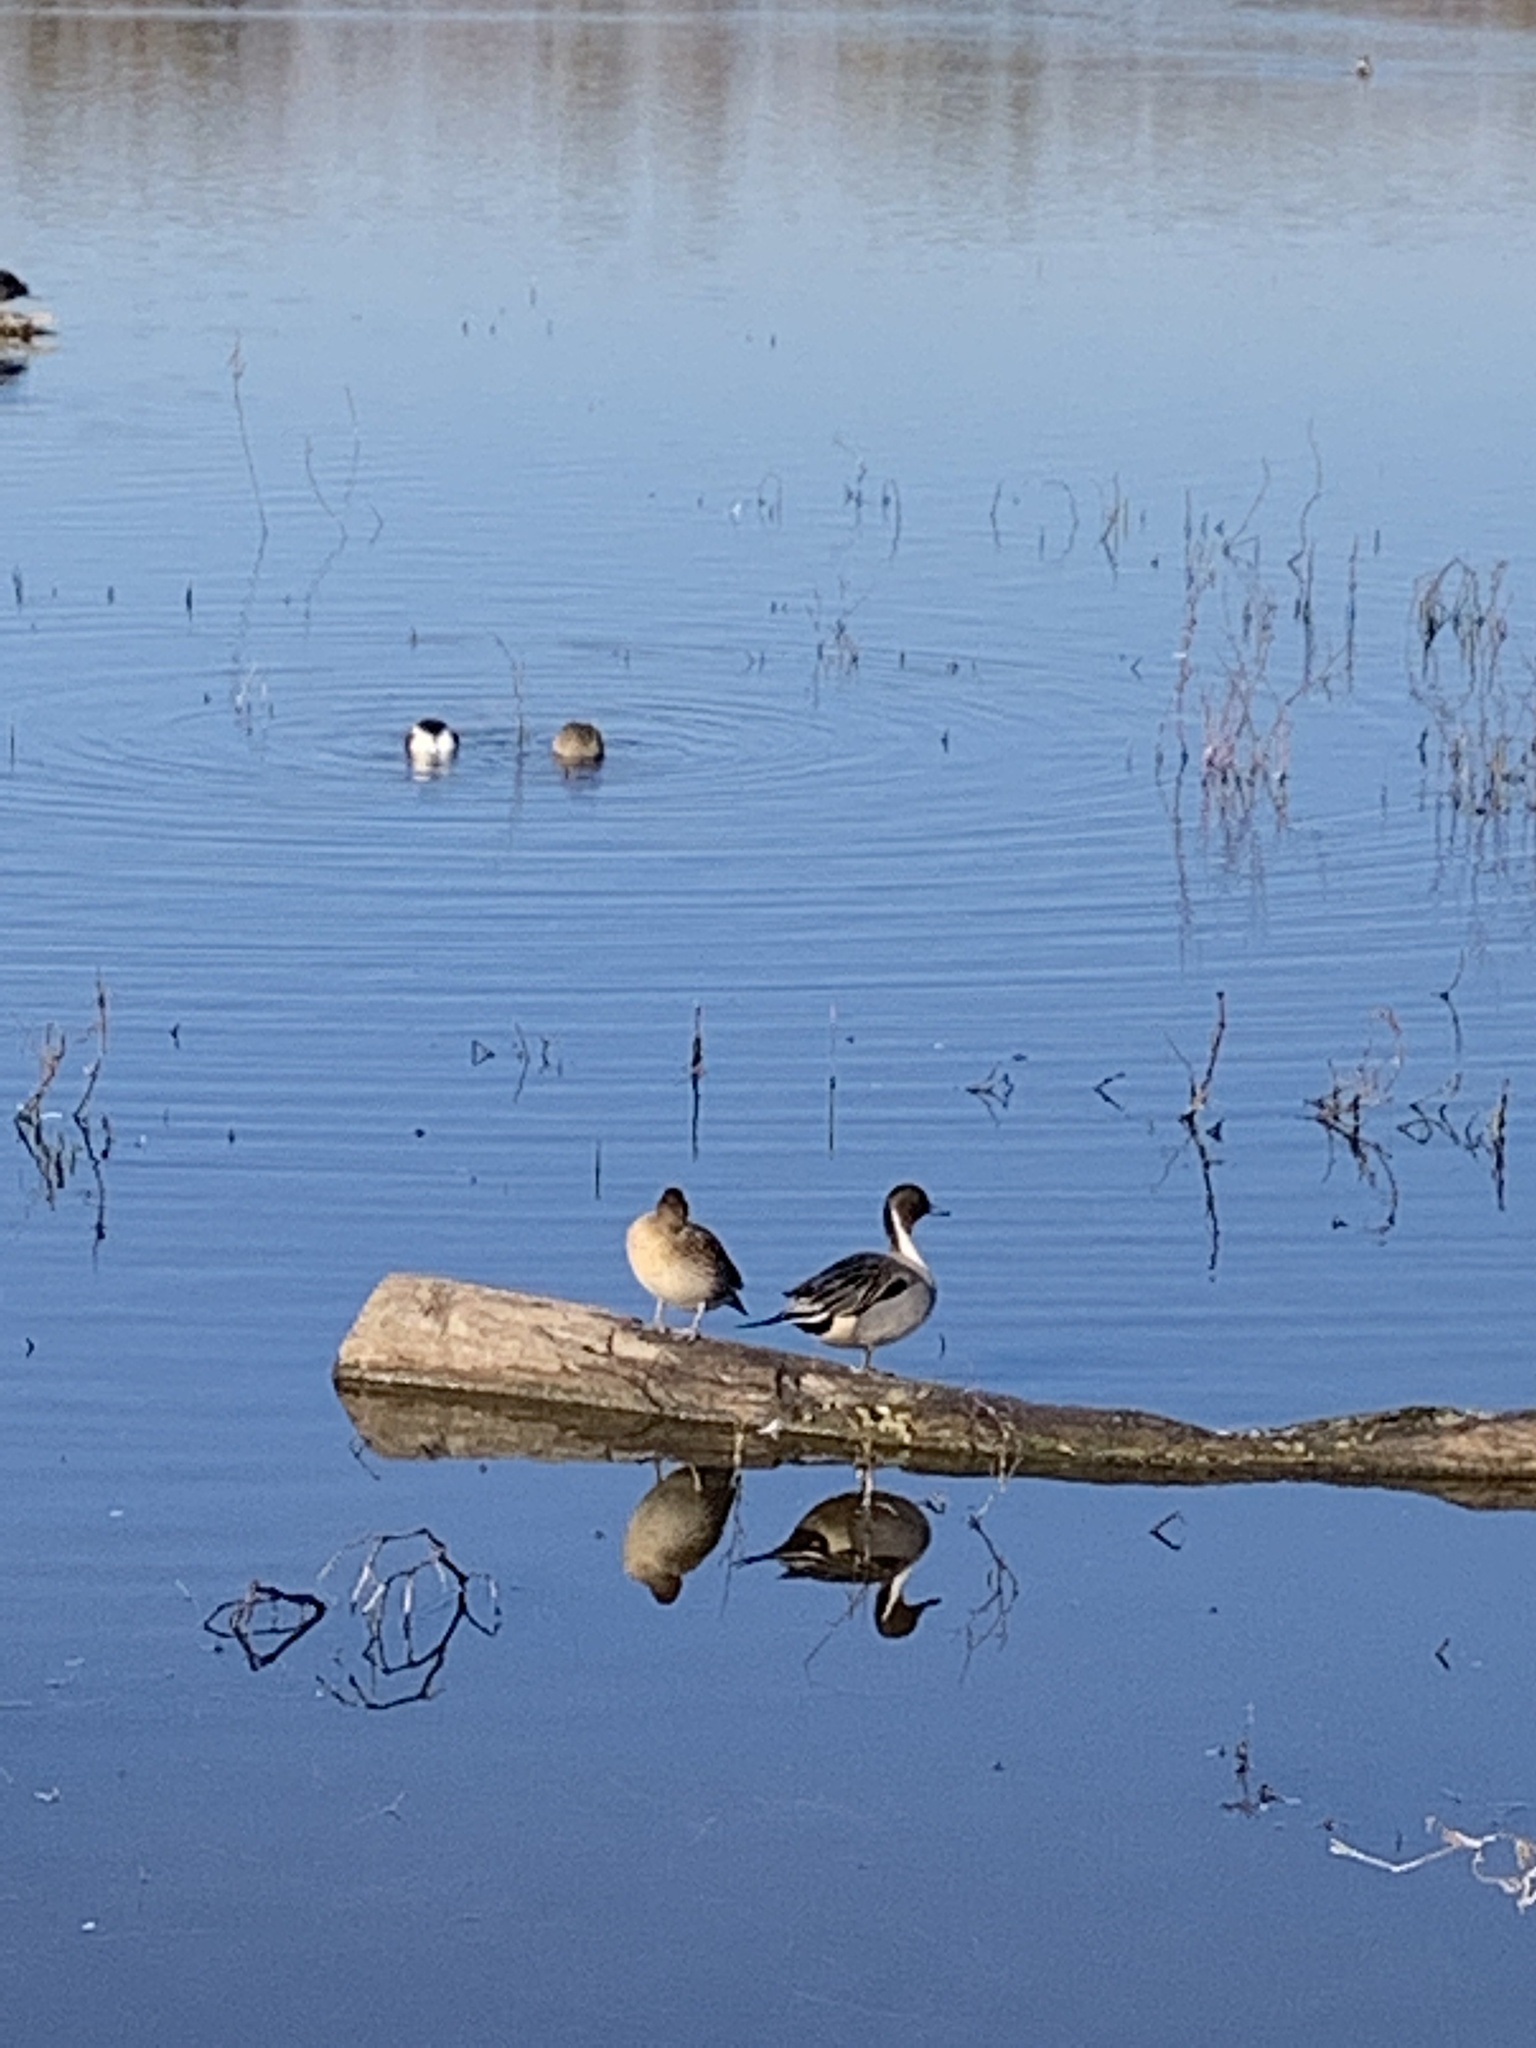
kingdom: Animalia
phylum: Chordata
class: Aves
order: Anseriformes
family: Anatidae
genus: Anas
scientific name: Anas acuta
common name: Northern pintail
